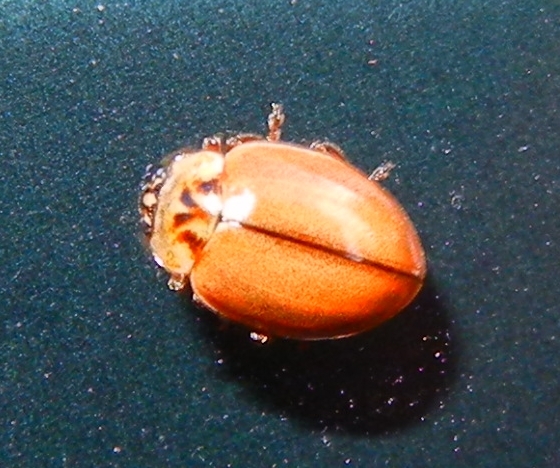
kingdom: Animalia
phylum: Arthropoda
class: Insecta
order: Coleoptera
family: Coccinellidae
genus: Aphidecta
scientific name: Aphidecta obliterata
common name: Larch ladybird
